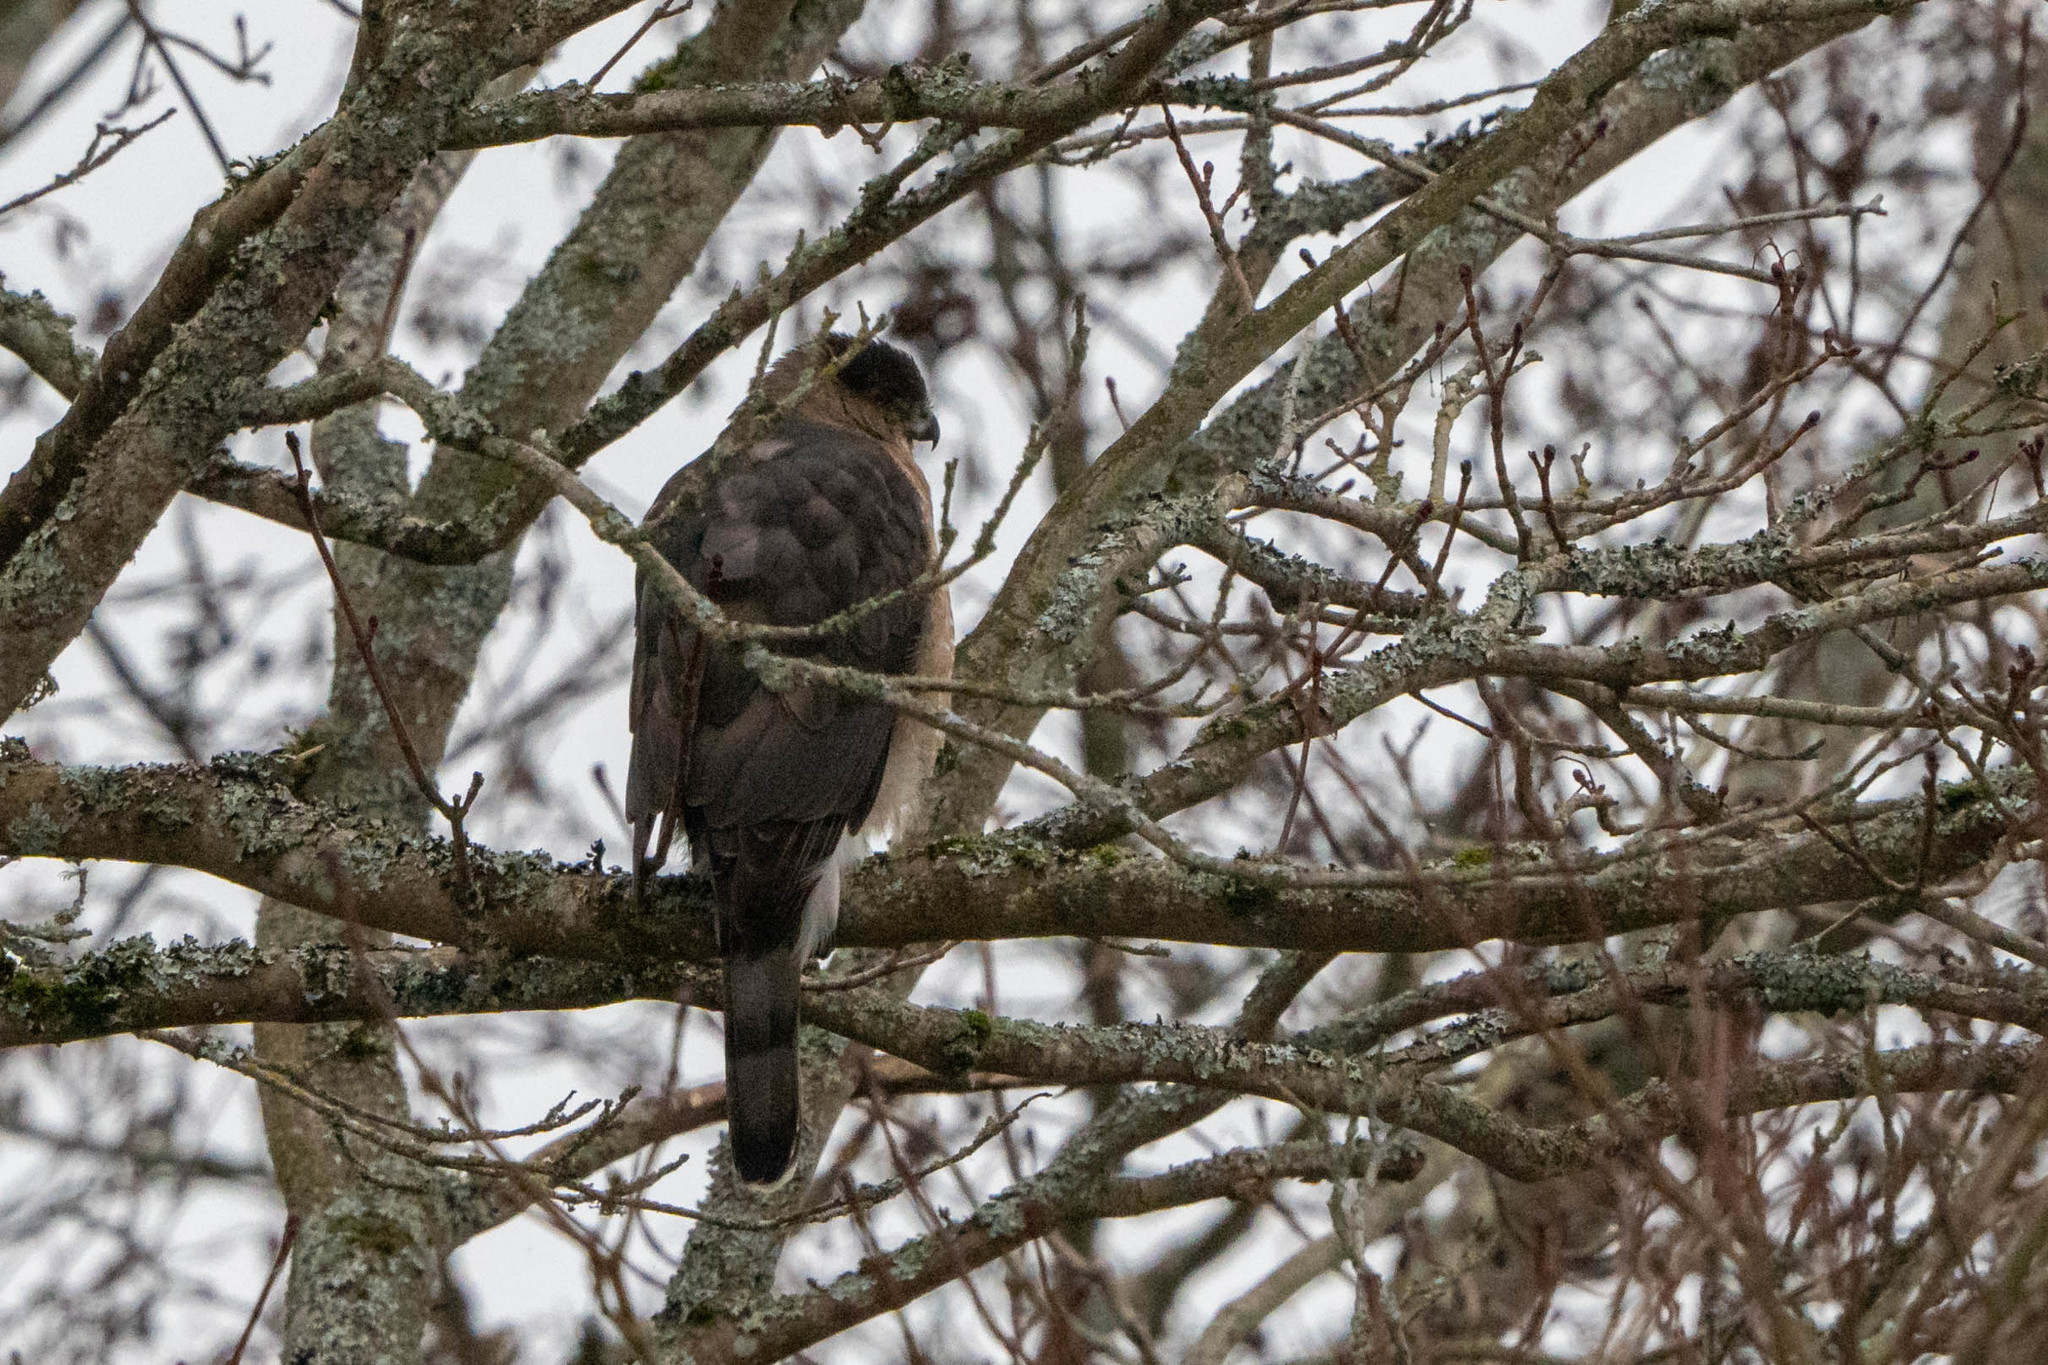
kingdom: Animalia
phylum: Chordata
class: Aves
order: Accipitriformes
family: Accipitridae
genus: Accipiter
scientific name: Accipiter cooperii
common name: Cooper's hawk
